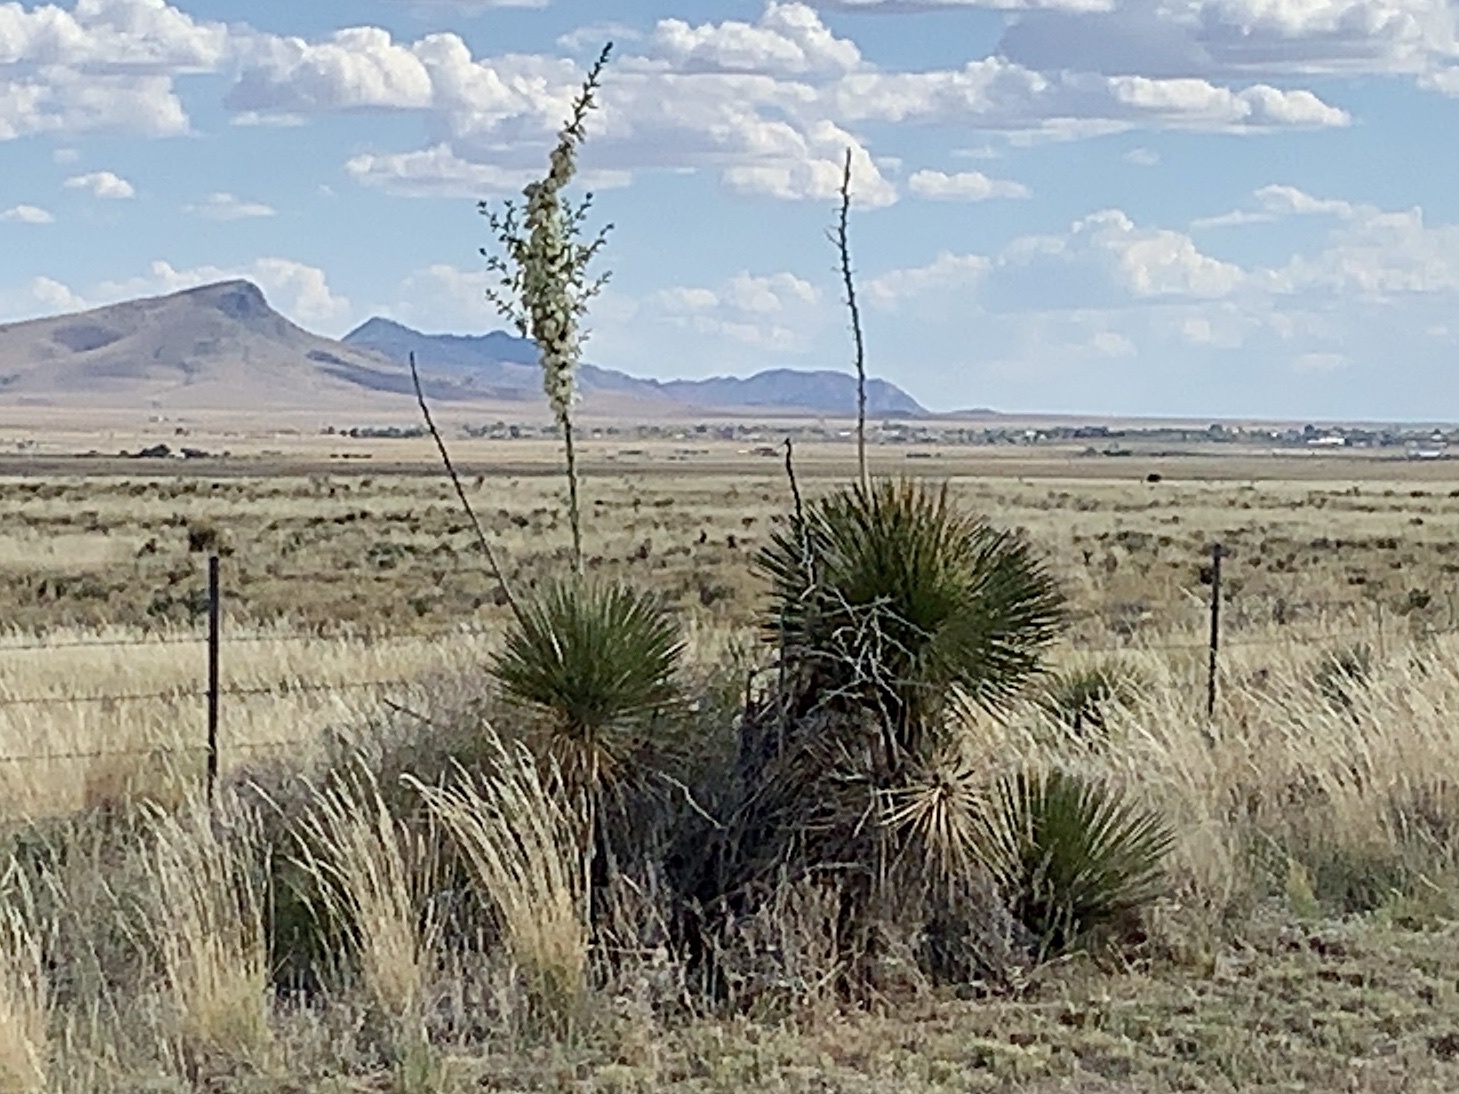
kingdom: Plantae
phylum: Tracheophyta
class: Liliopsida
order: Asparagales
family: Asparagaceae
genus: Yucca
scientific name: Yucca elata
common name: Palmella
